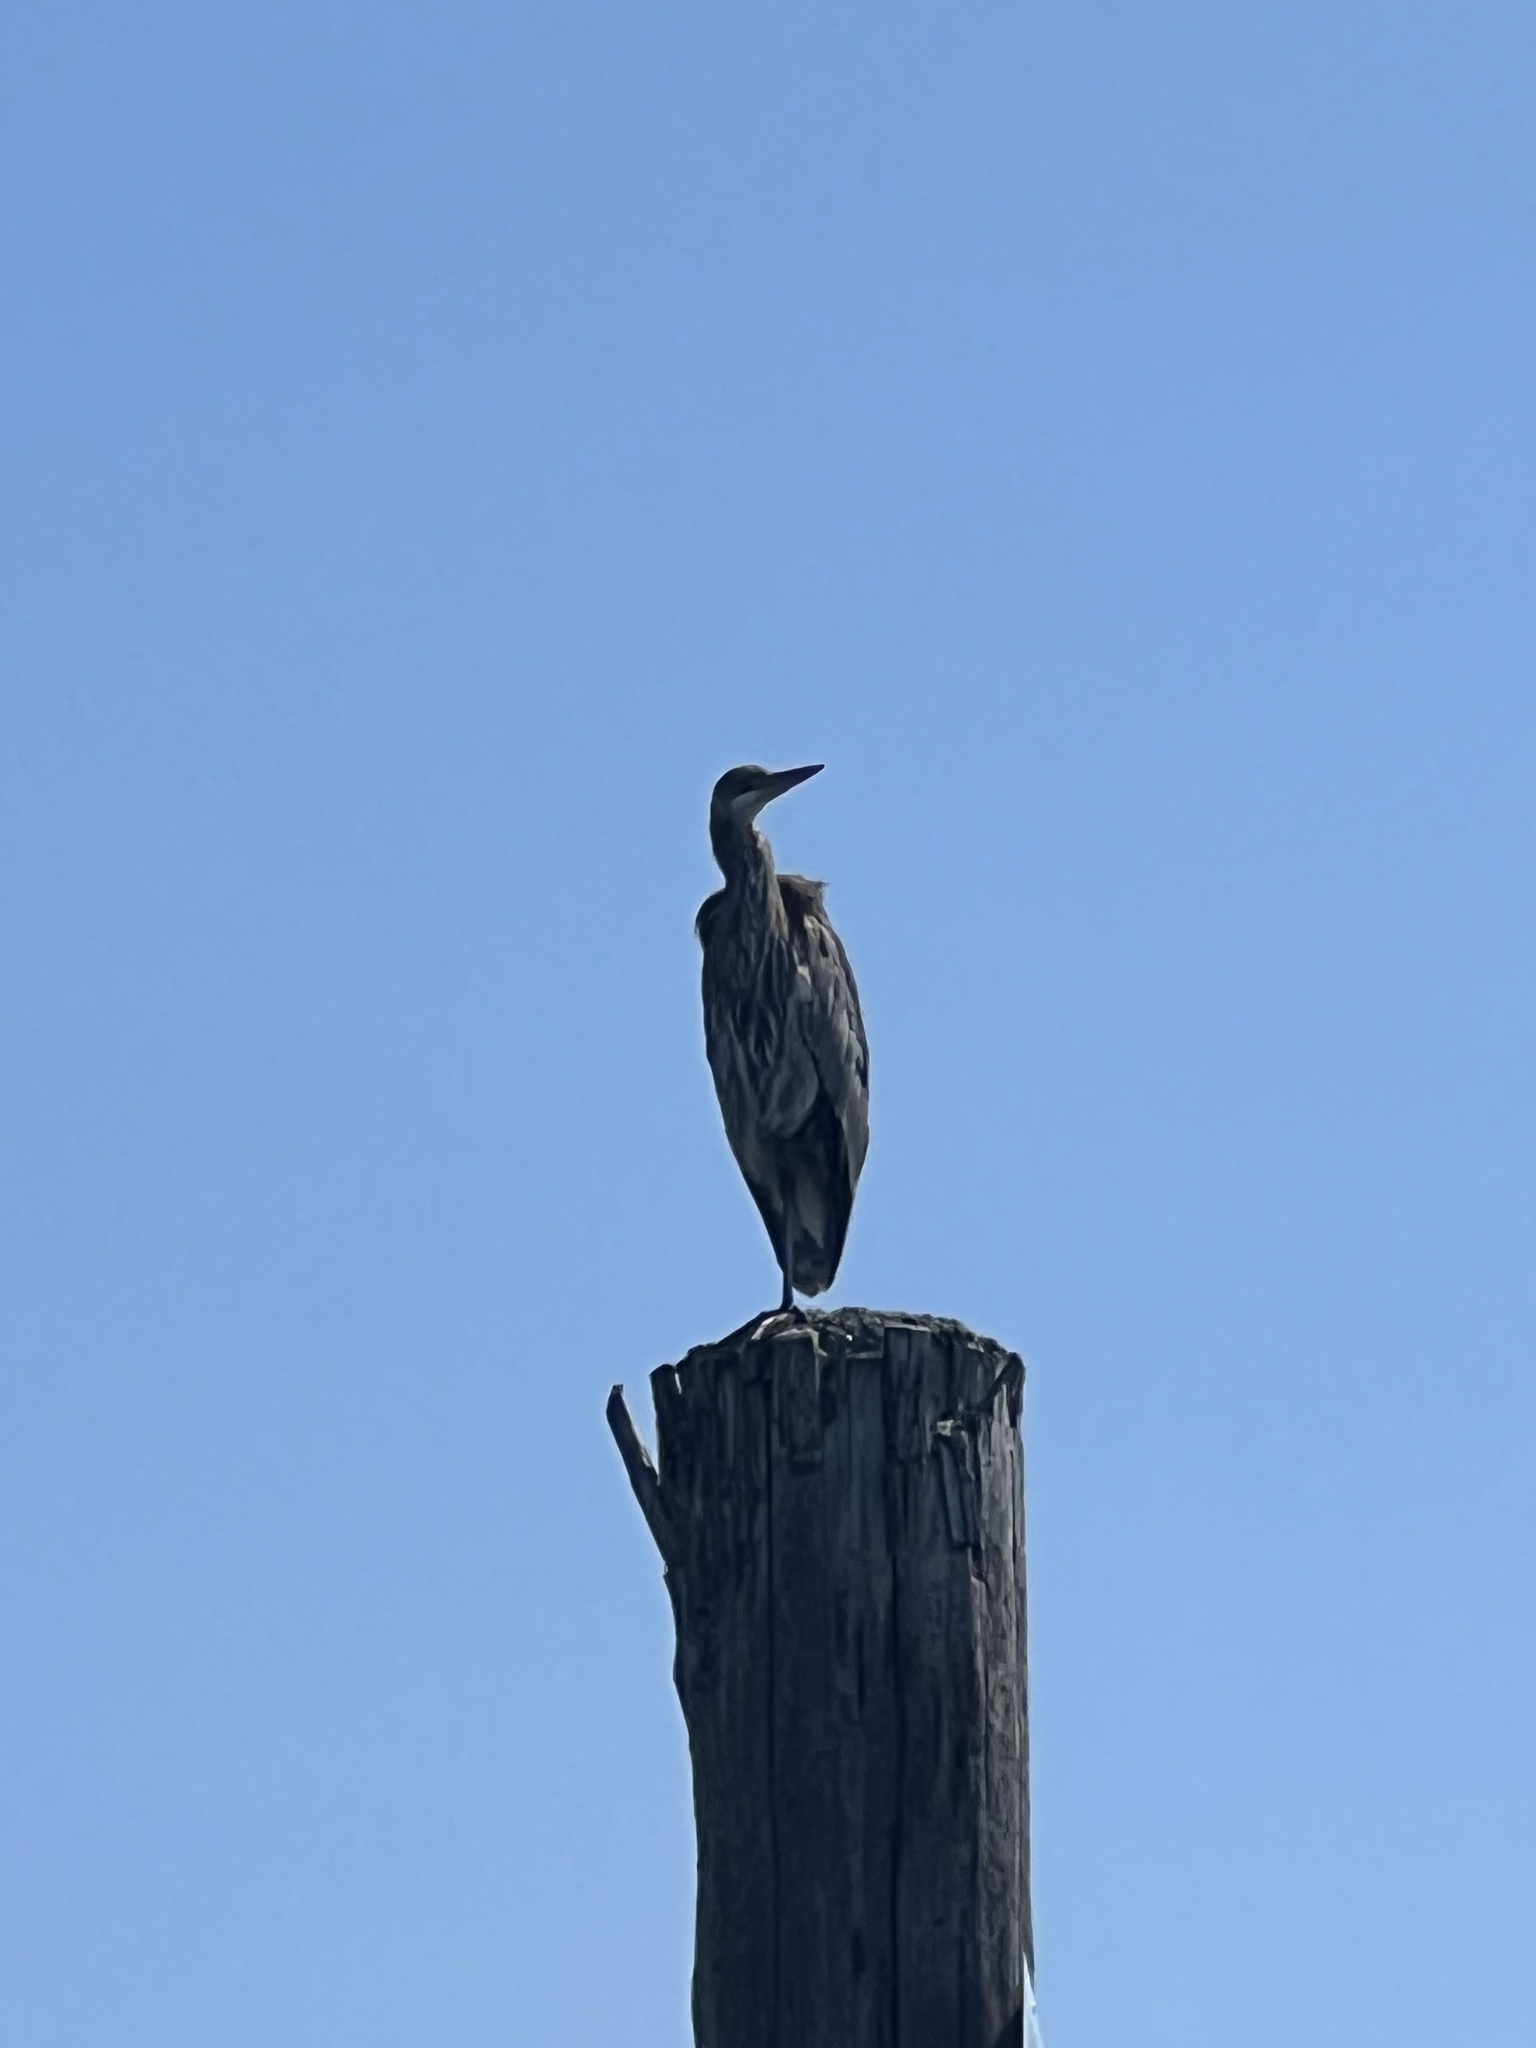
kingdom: Animalia
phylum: Chordata
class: Aves
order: Pelecaniformes
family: Ardeidae
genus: Ardea
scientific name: Ardea herodias
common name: Great blue heron
